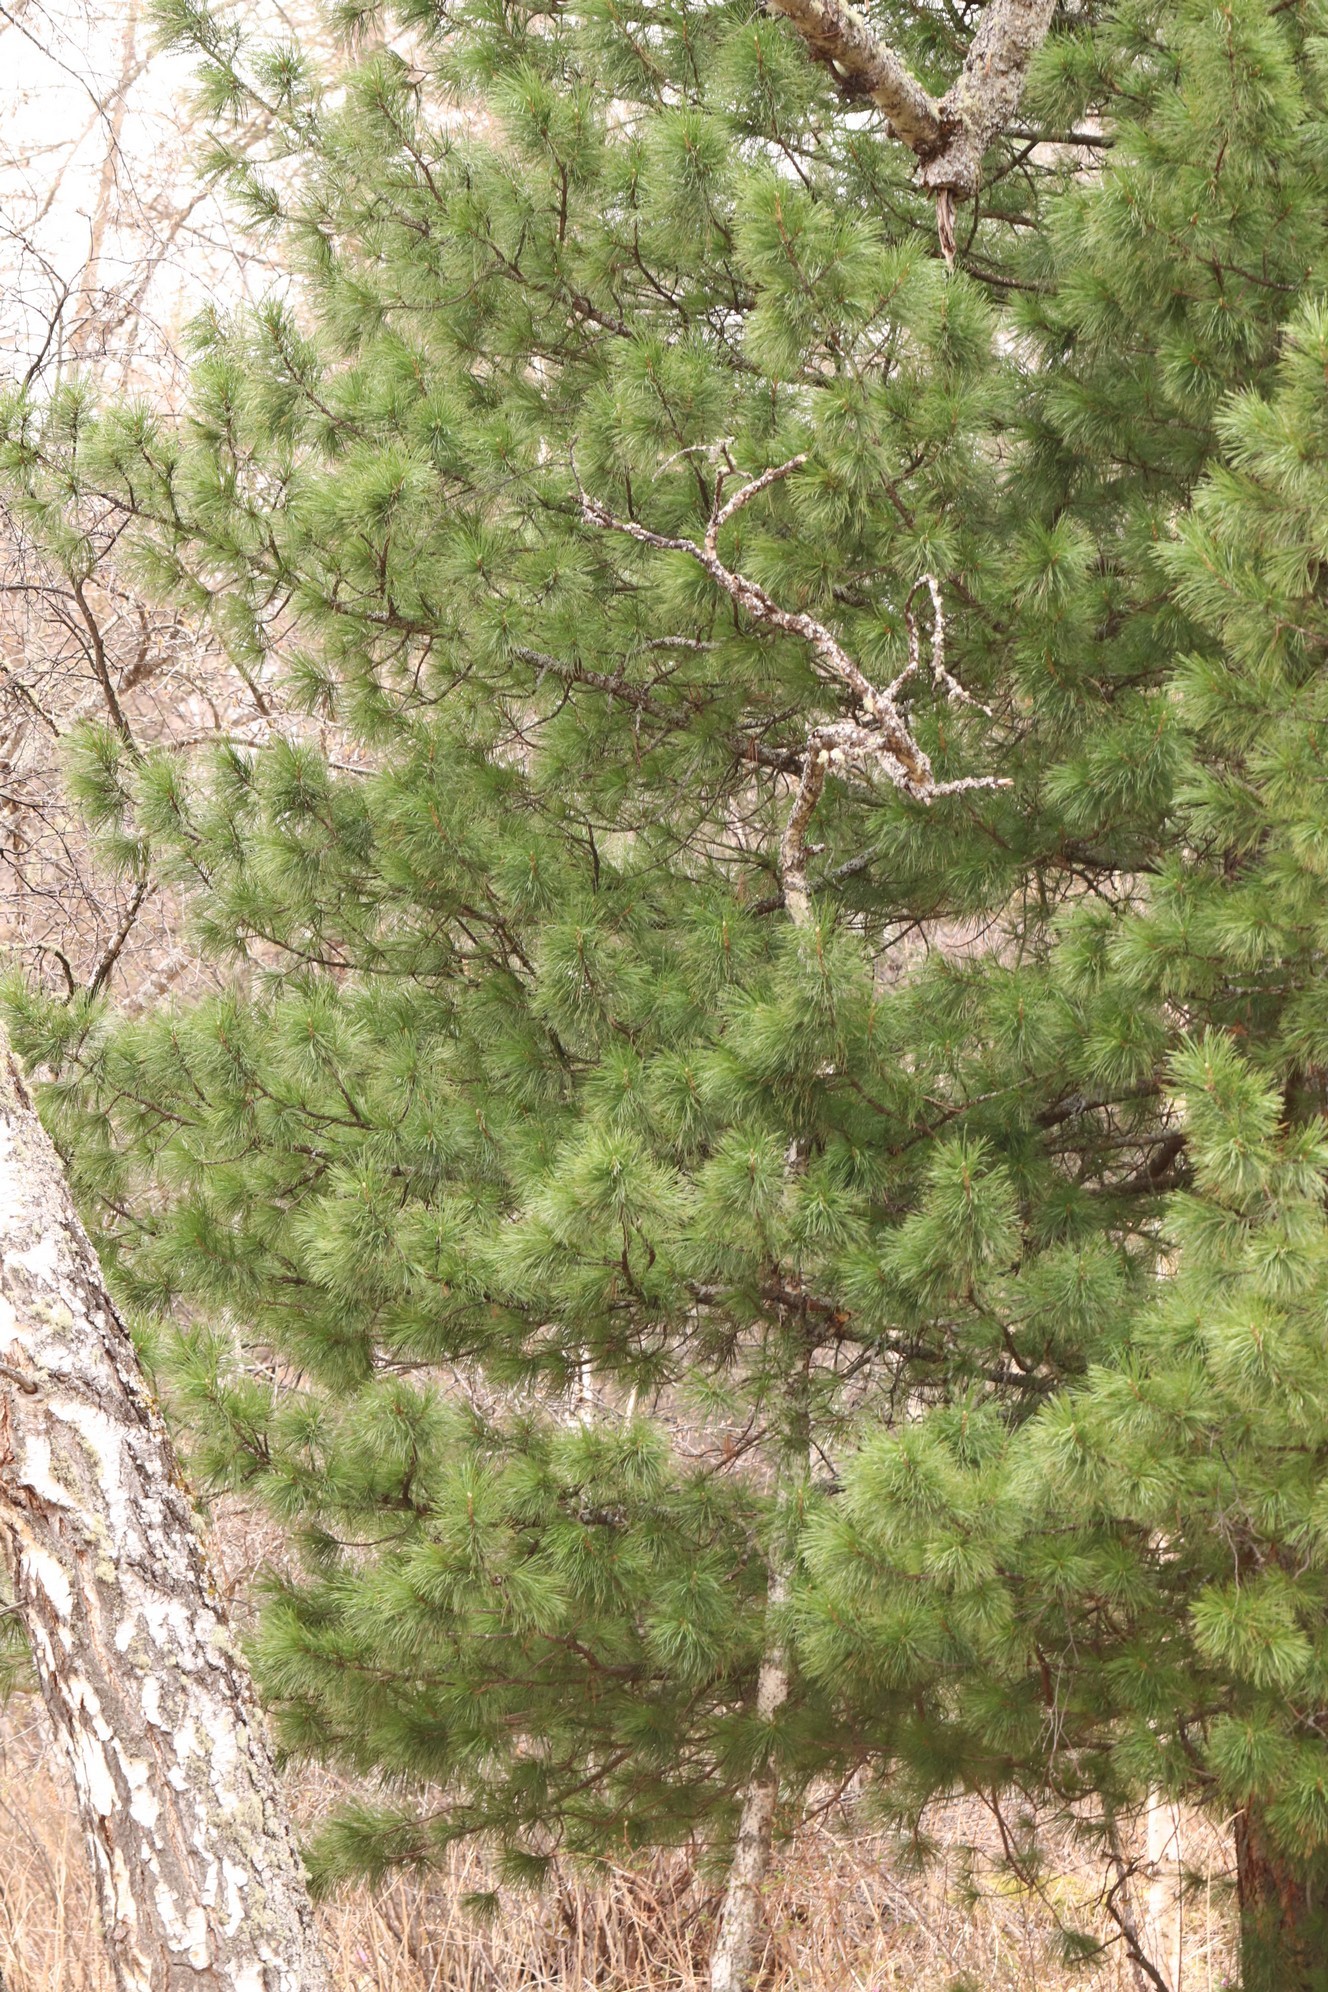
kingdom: Plantae
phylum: Tracheophyta
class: Pinopsida
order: Pinales
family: Pinaceae
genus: Pinus
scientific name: Pinus sibirica
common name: Siberian pine
